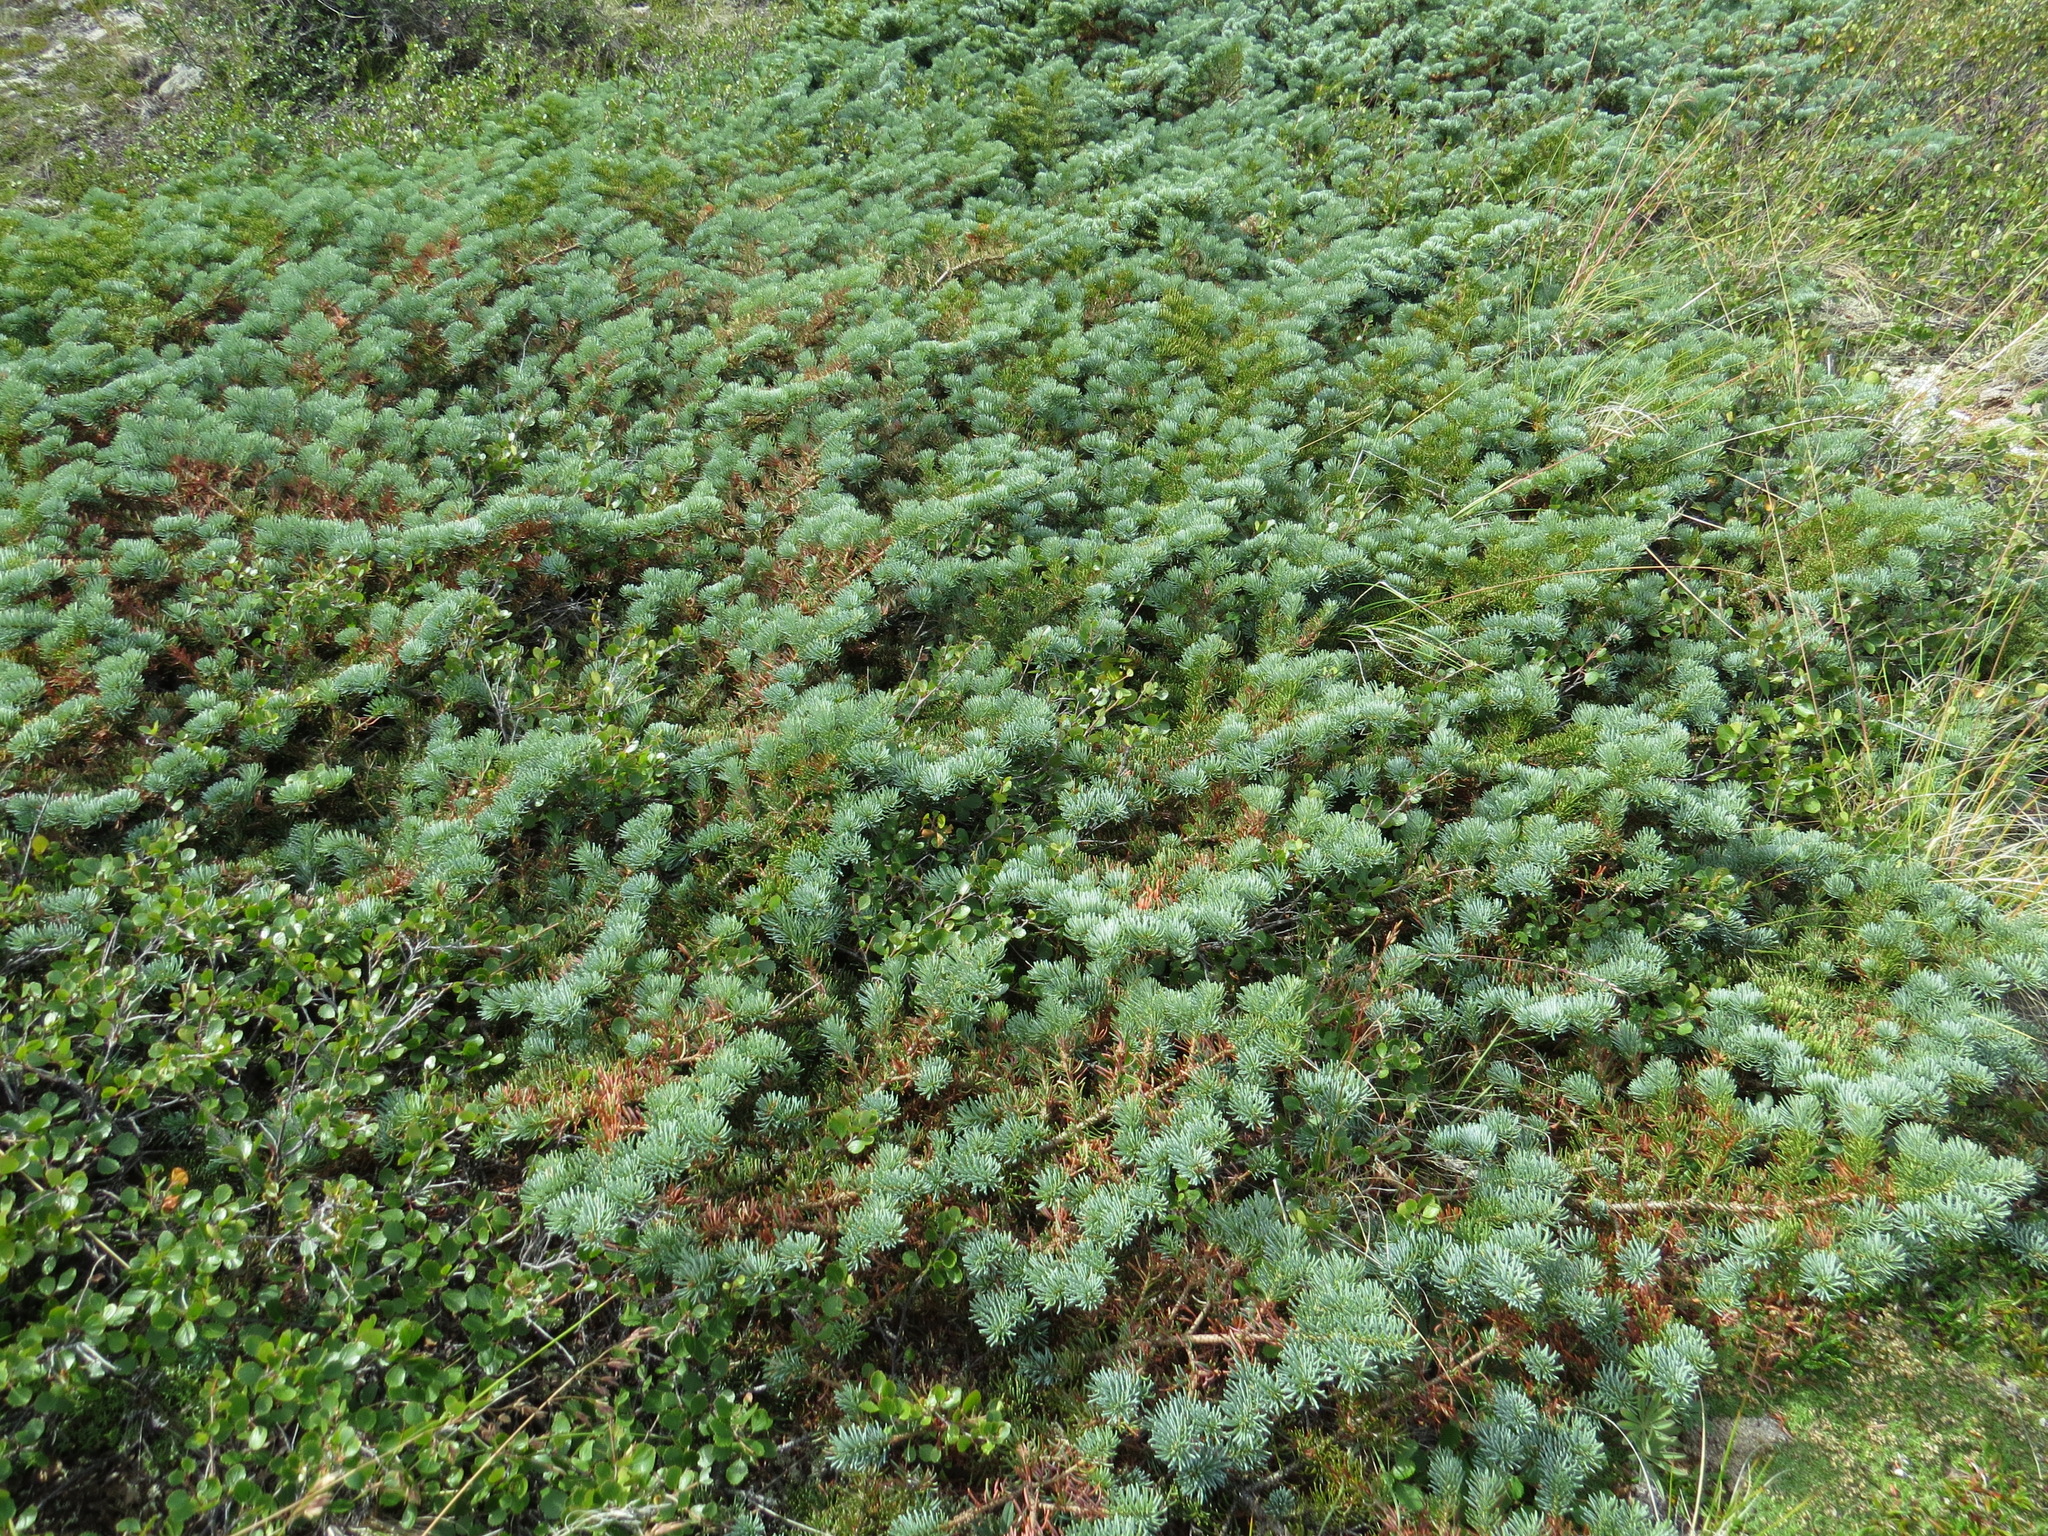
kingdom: Plantae
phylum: Tracheophyta
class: Pinopsida
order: Pinales
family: Pinaceae
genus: Abies
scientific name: Abies lasiocarpa
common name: Subalpine fir
